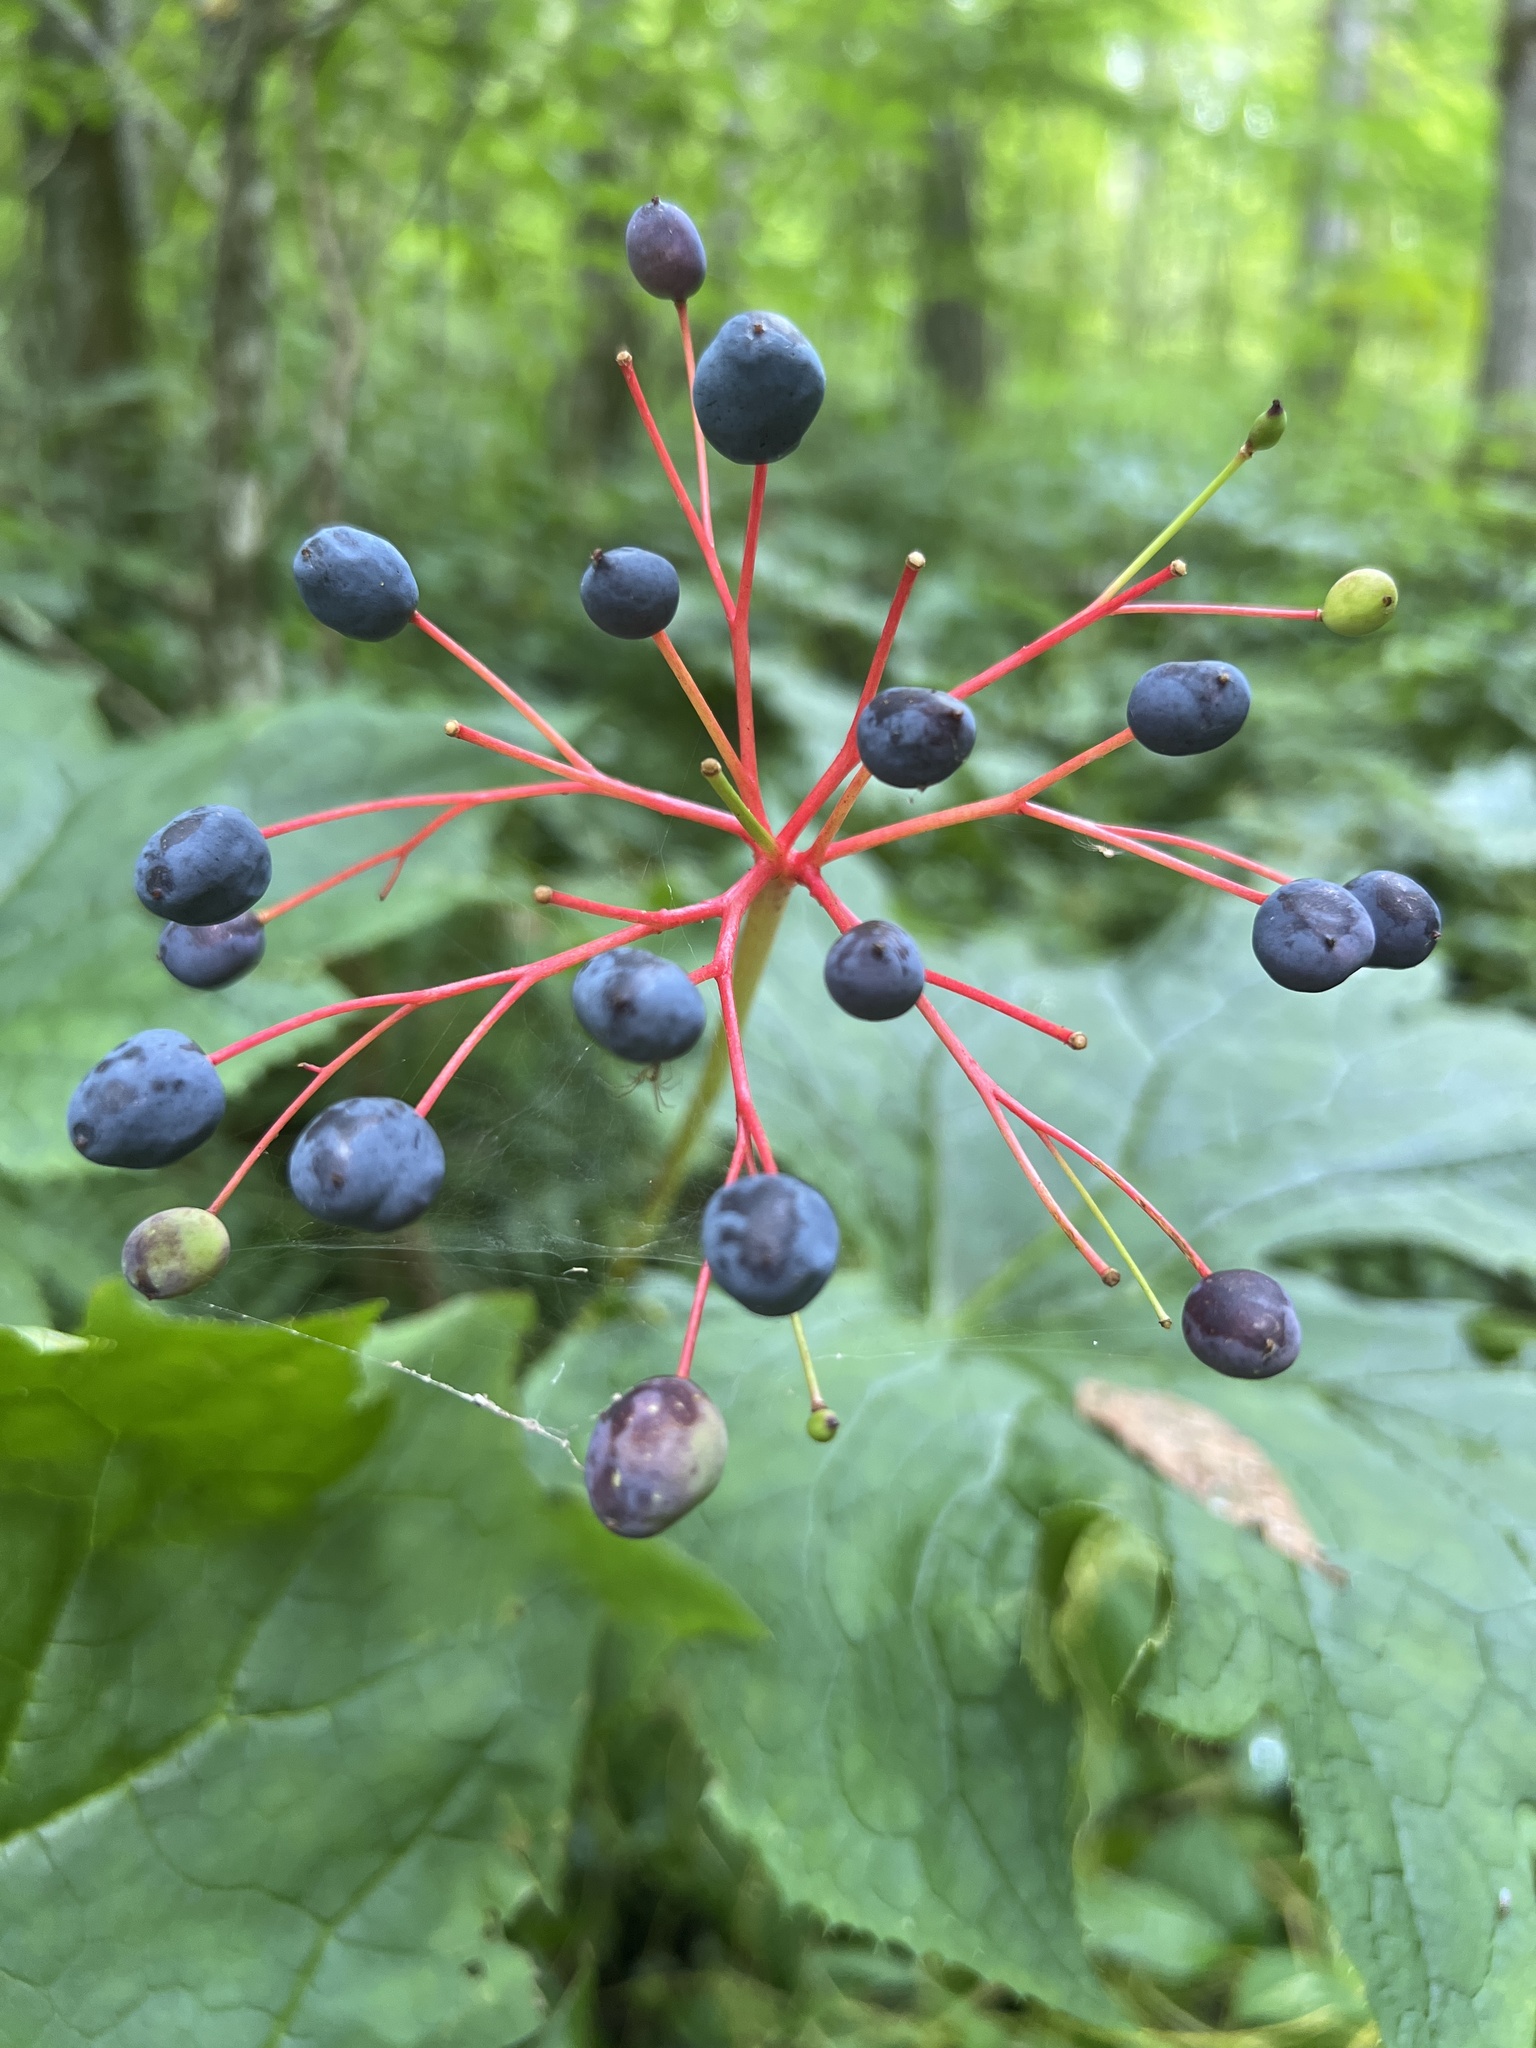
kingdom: Plantae
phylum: Tracheophyta
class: Magnoliopsida
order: Ranunculales
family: Berberidaceae
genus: Diphylleia
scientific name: Diphylleia cymosa
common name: Umbrella-leaf
